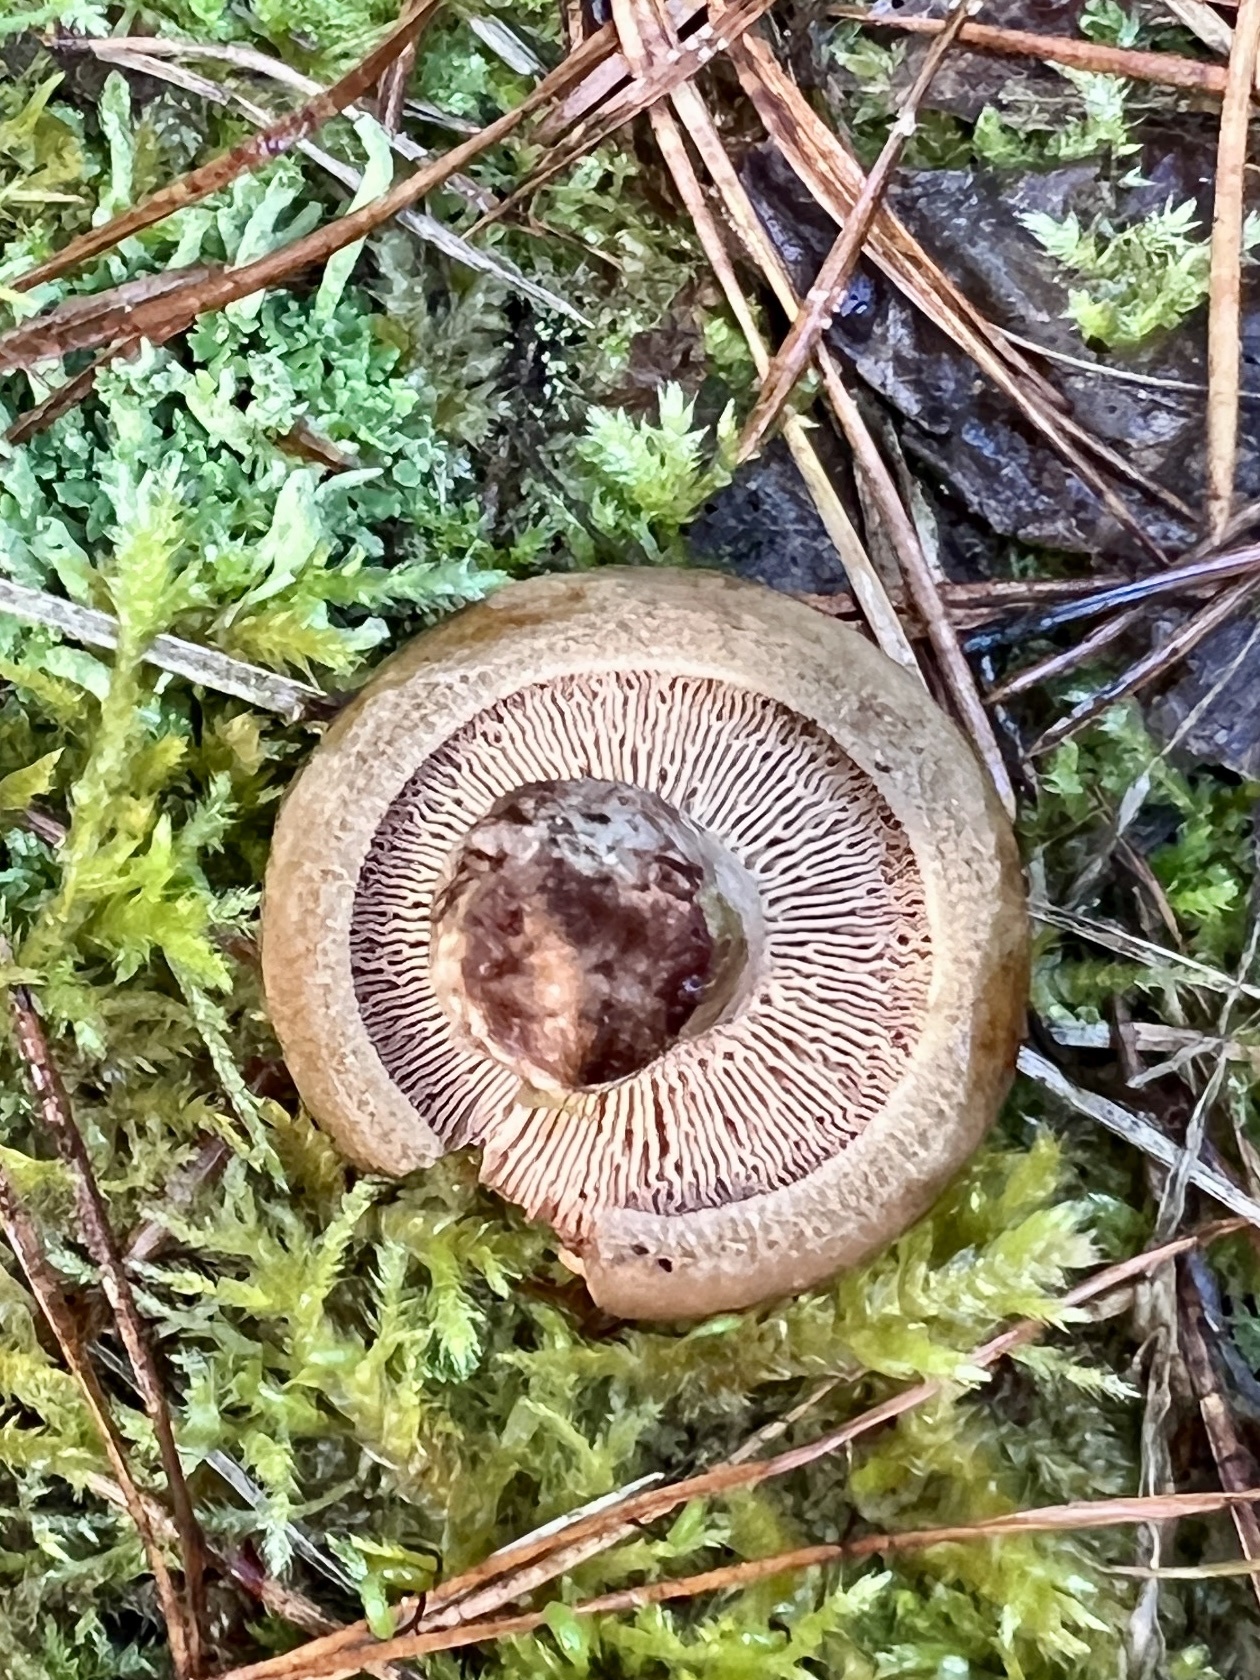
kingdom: Fungi
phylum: Basidiomycota
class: Agaricomycetes
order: Boletales
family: Paxillaceae
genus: Paxillus
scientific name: Paxillus involutus
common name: Brown roll rim
